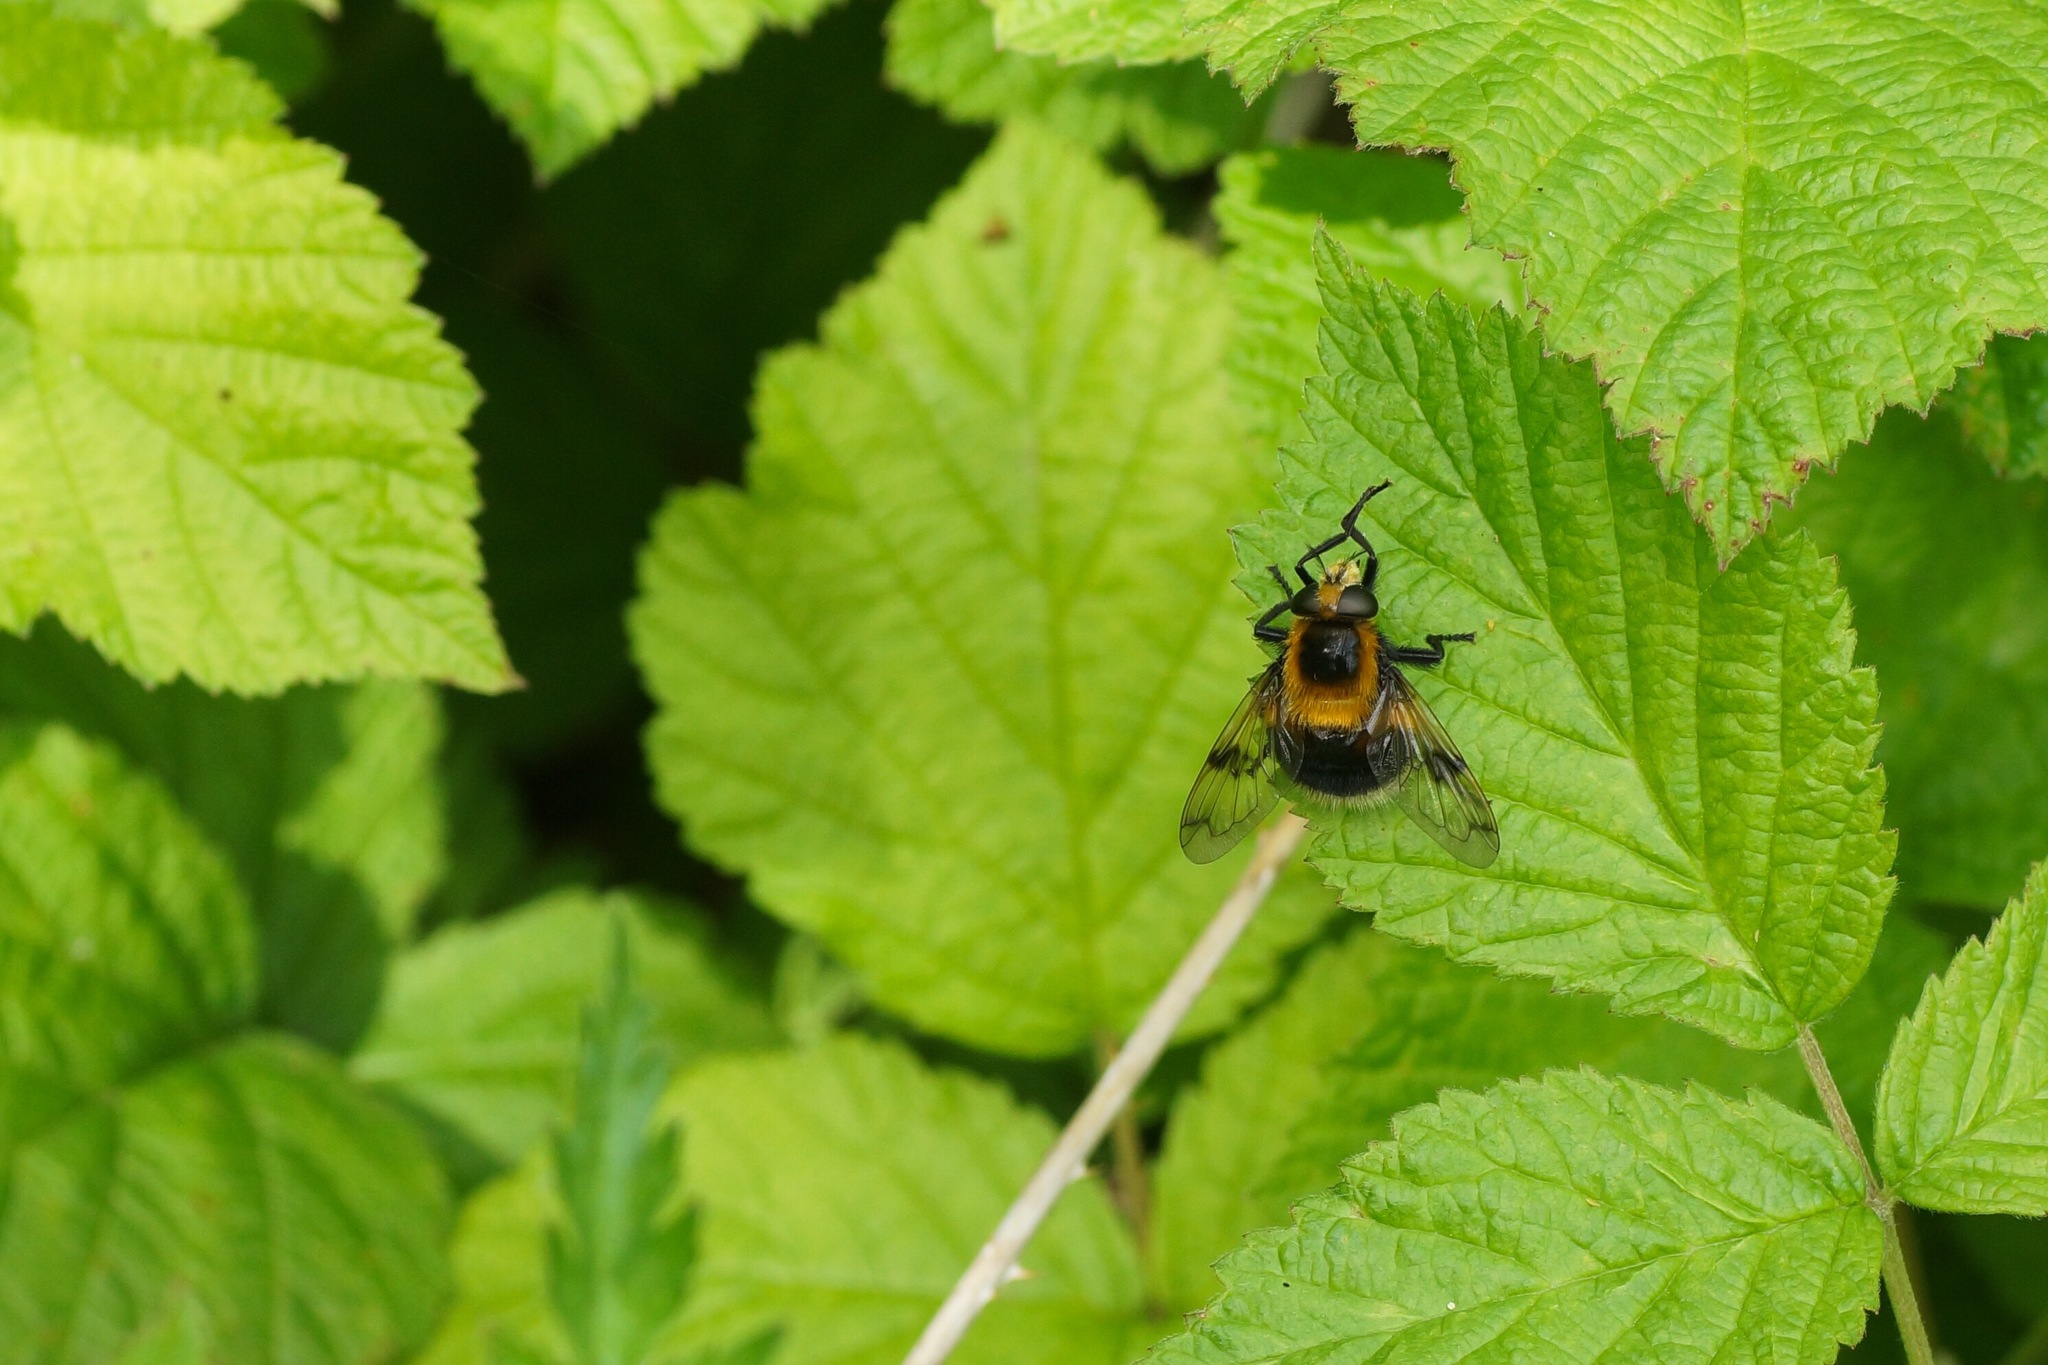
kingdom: Animalia
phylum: Arthropoda
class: Insecta
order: Diptera
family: Syrphidae
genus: Volucella
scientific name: Volucella bombylans
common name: Bumble bee hover fly
